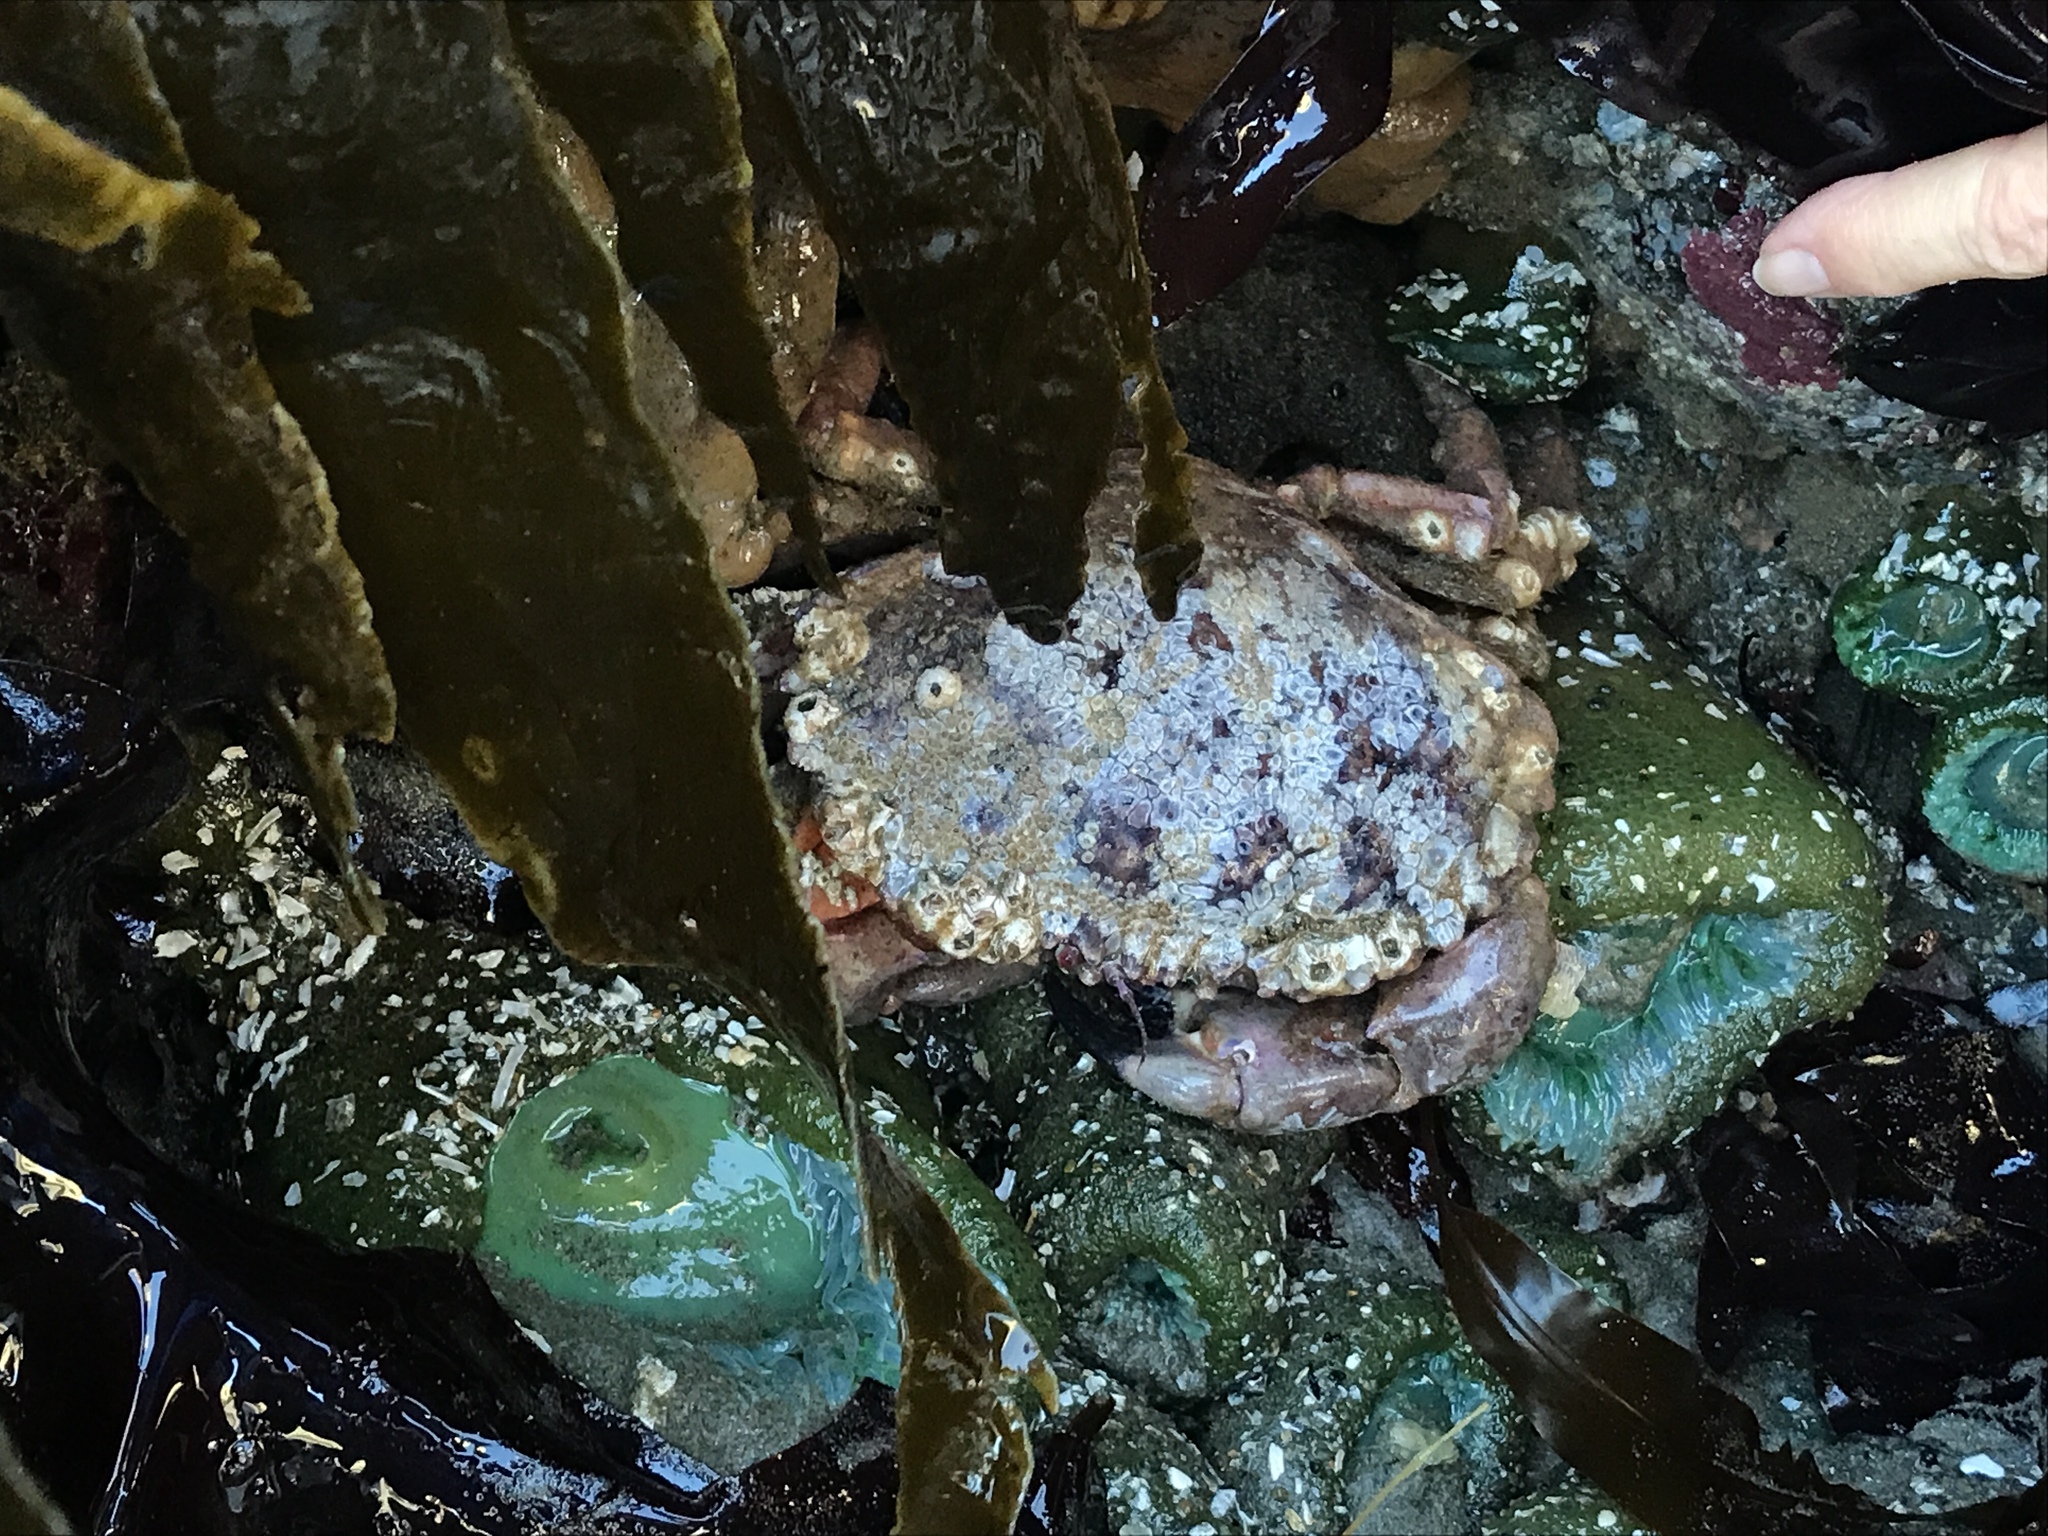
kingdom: Animalia
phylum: Arthropoda
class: Malacostraca
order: Decapoda
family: Cancridae
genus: Romaleon
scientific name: Romaleon antennarium
